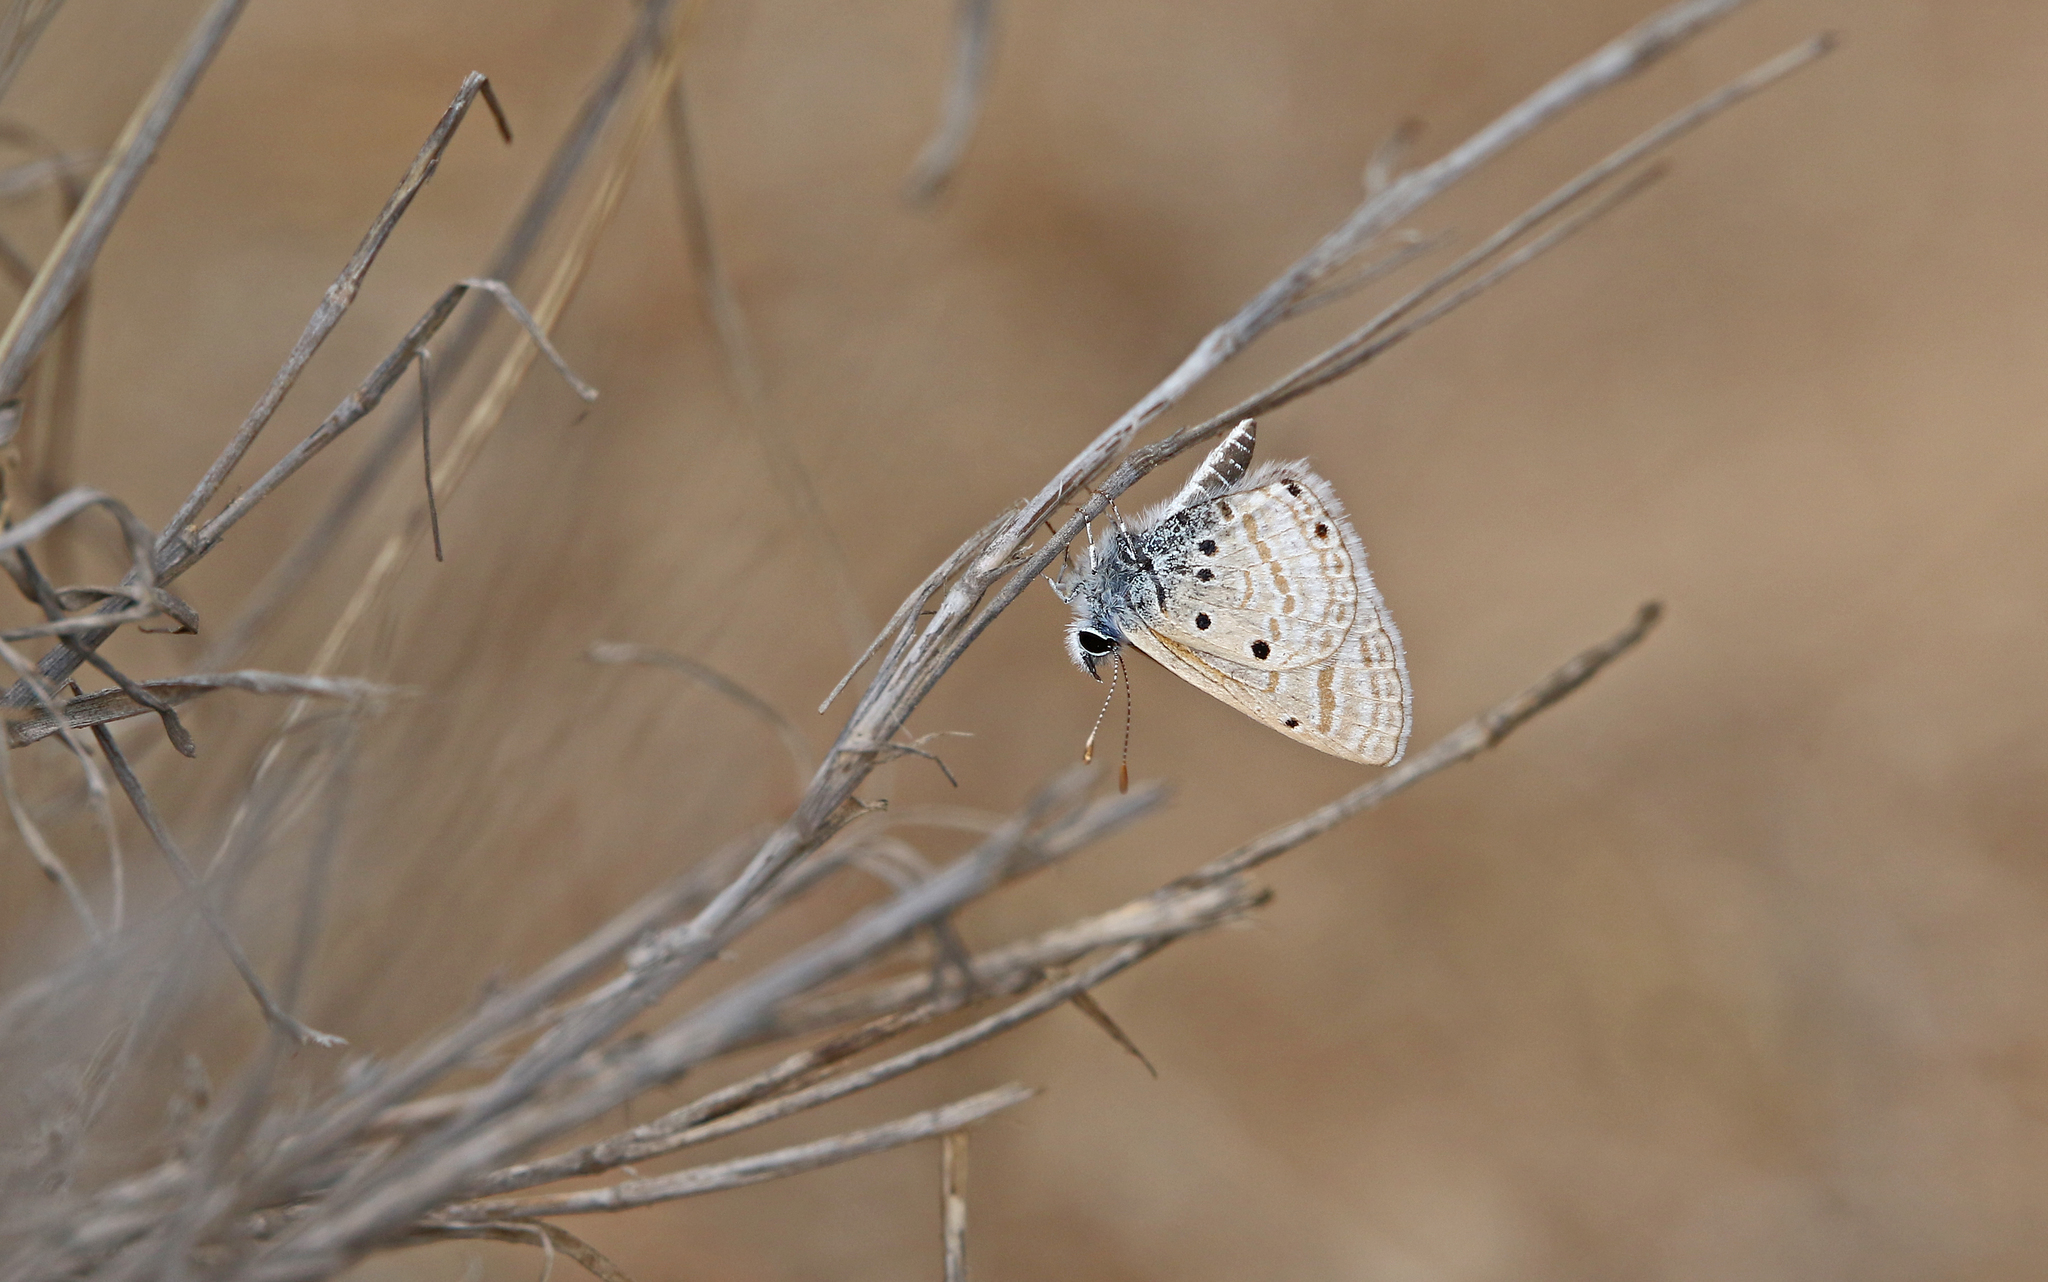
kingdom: Animalia
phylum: Arthropoda
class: Insecta
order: Lepidoptera
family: Lycaenidae
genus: Azanus
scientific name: Azanus ubaldus
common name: Desert babul blue
